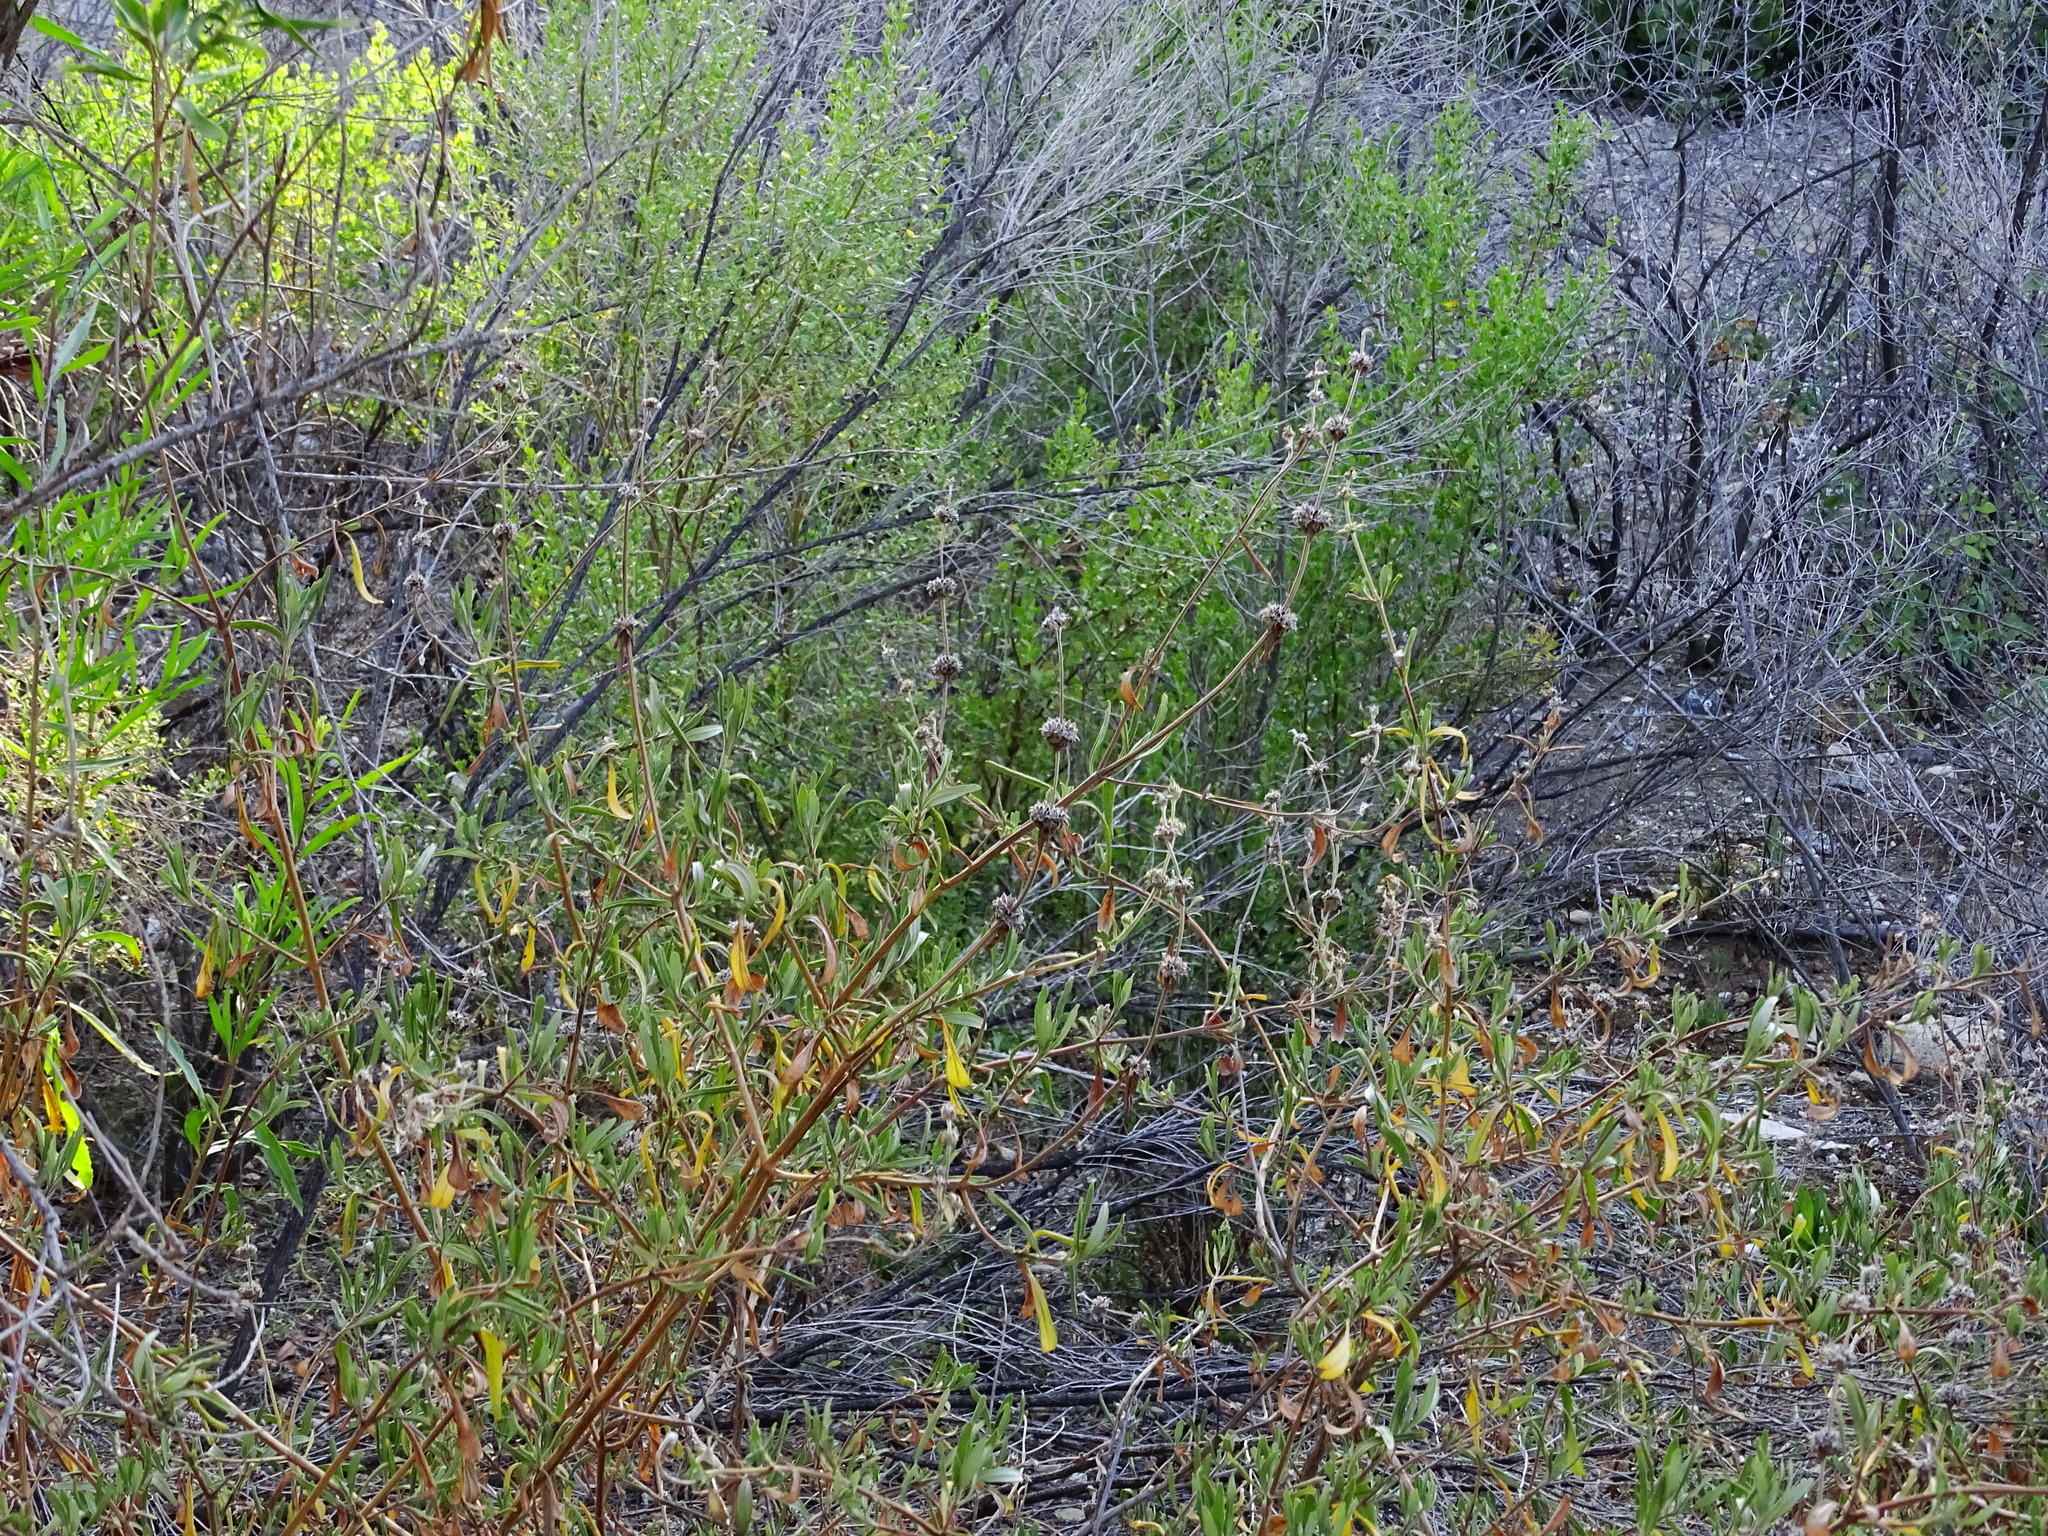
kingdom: Plantae
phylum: Tracheophyta
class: Magnoliopsida
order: Lamiales
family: Lamiaceae
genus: Salvia
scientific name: Salvia mellifera
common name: Black sage
